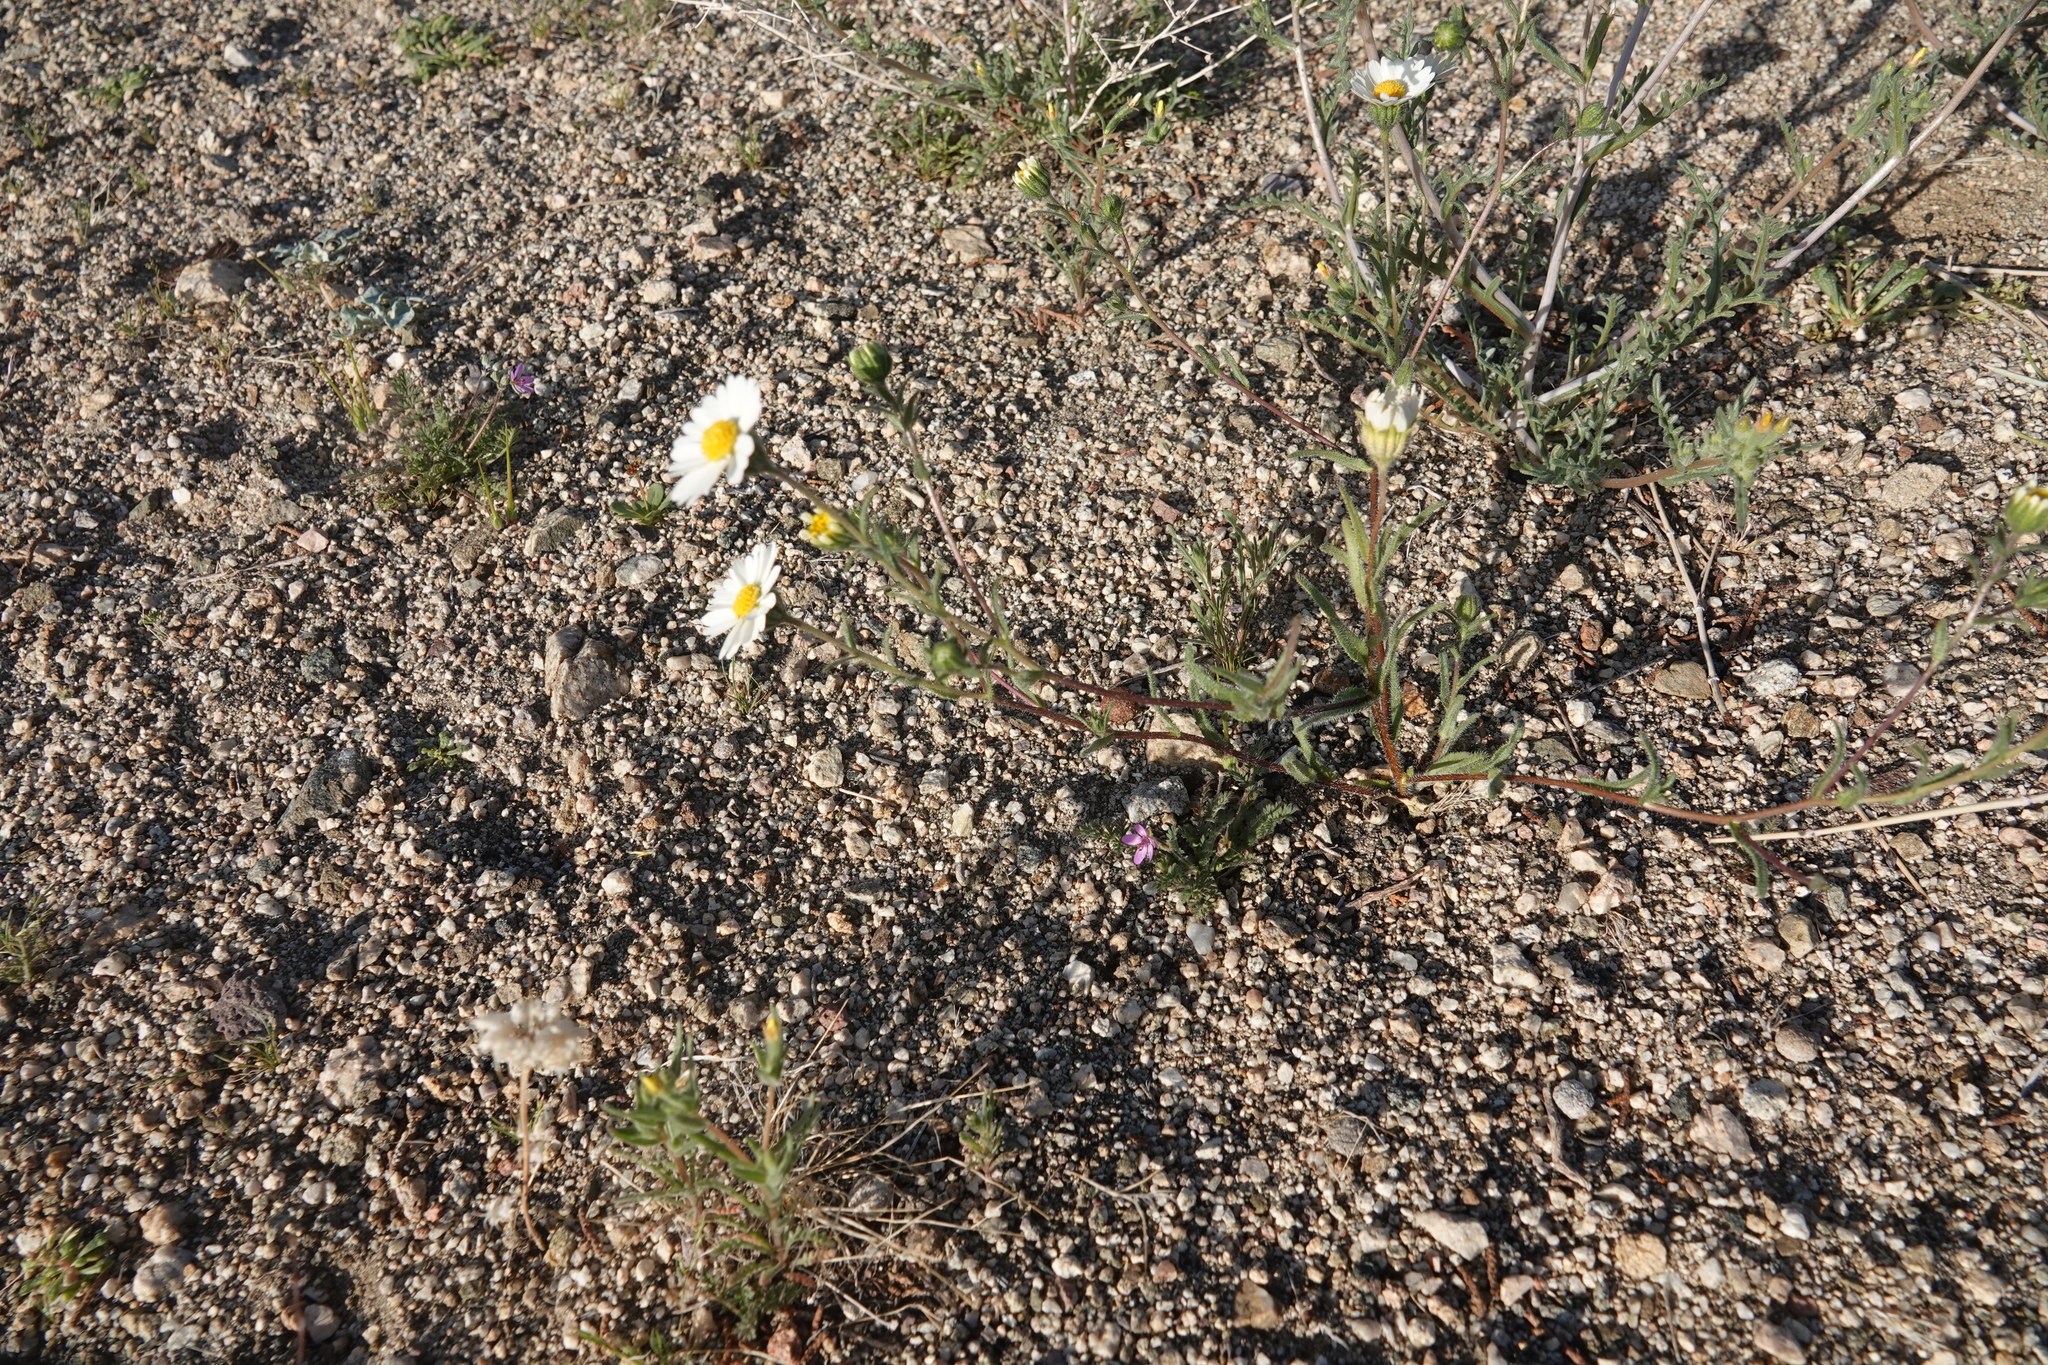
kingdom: Plantae
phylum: Tracheophyta
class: Magnoliopsida
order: Asterales
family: Asteraceae
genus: Layia
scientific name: Layia glandulosa
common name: White layia
